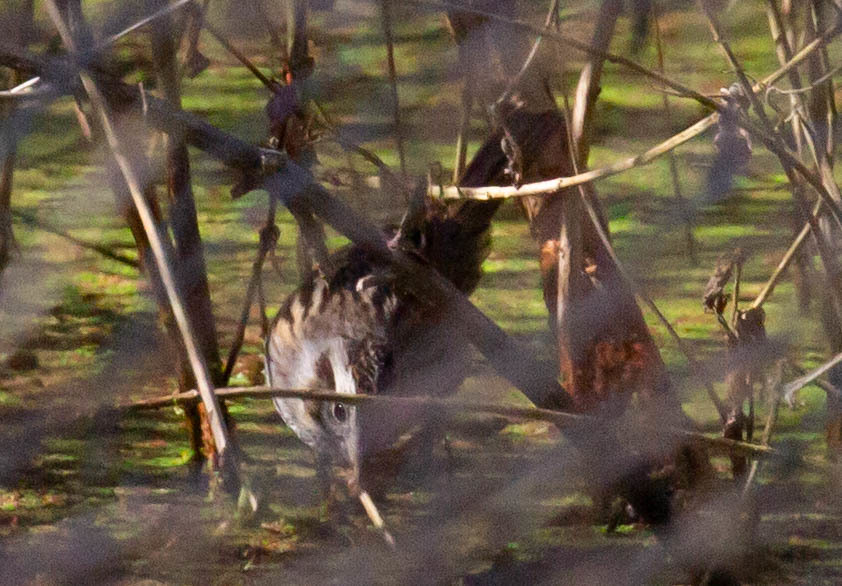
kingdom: Animalia
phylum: Chordata
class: Aves
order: Passeriformes
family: Passerellidae
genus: Melospiza
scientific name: Melospiza georgiana
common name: Swamp sparrow
